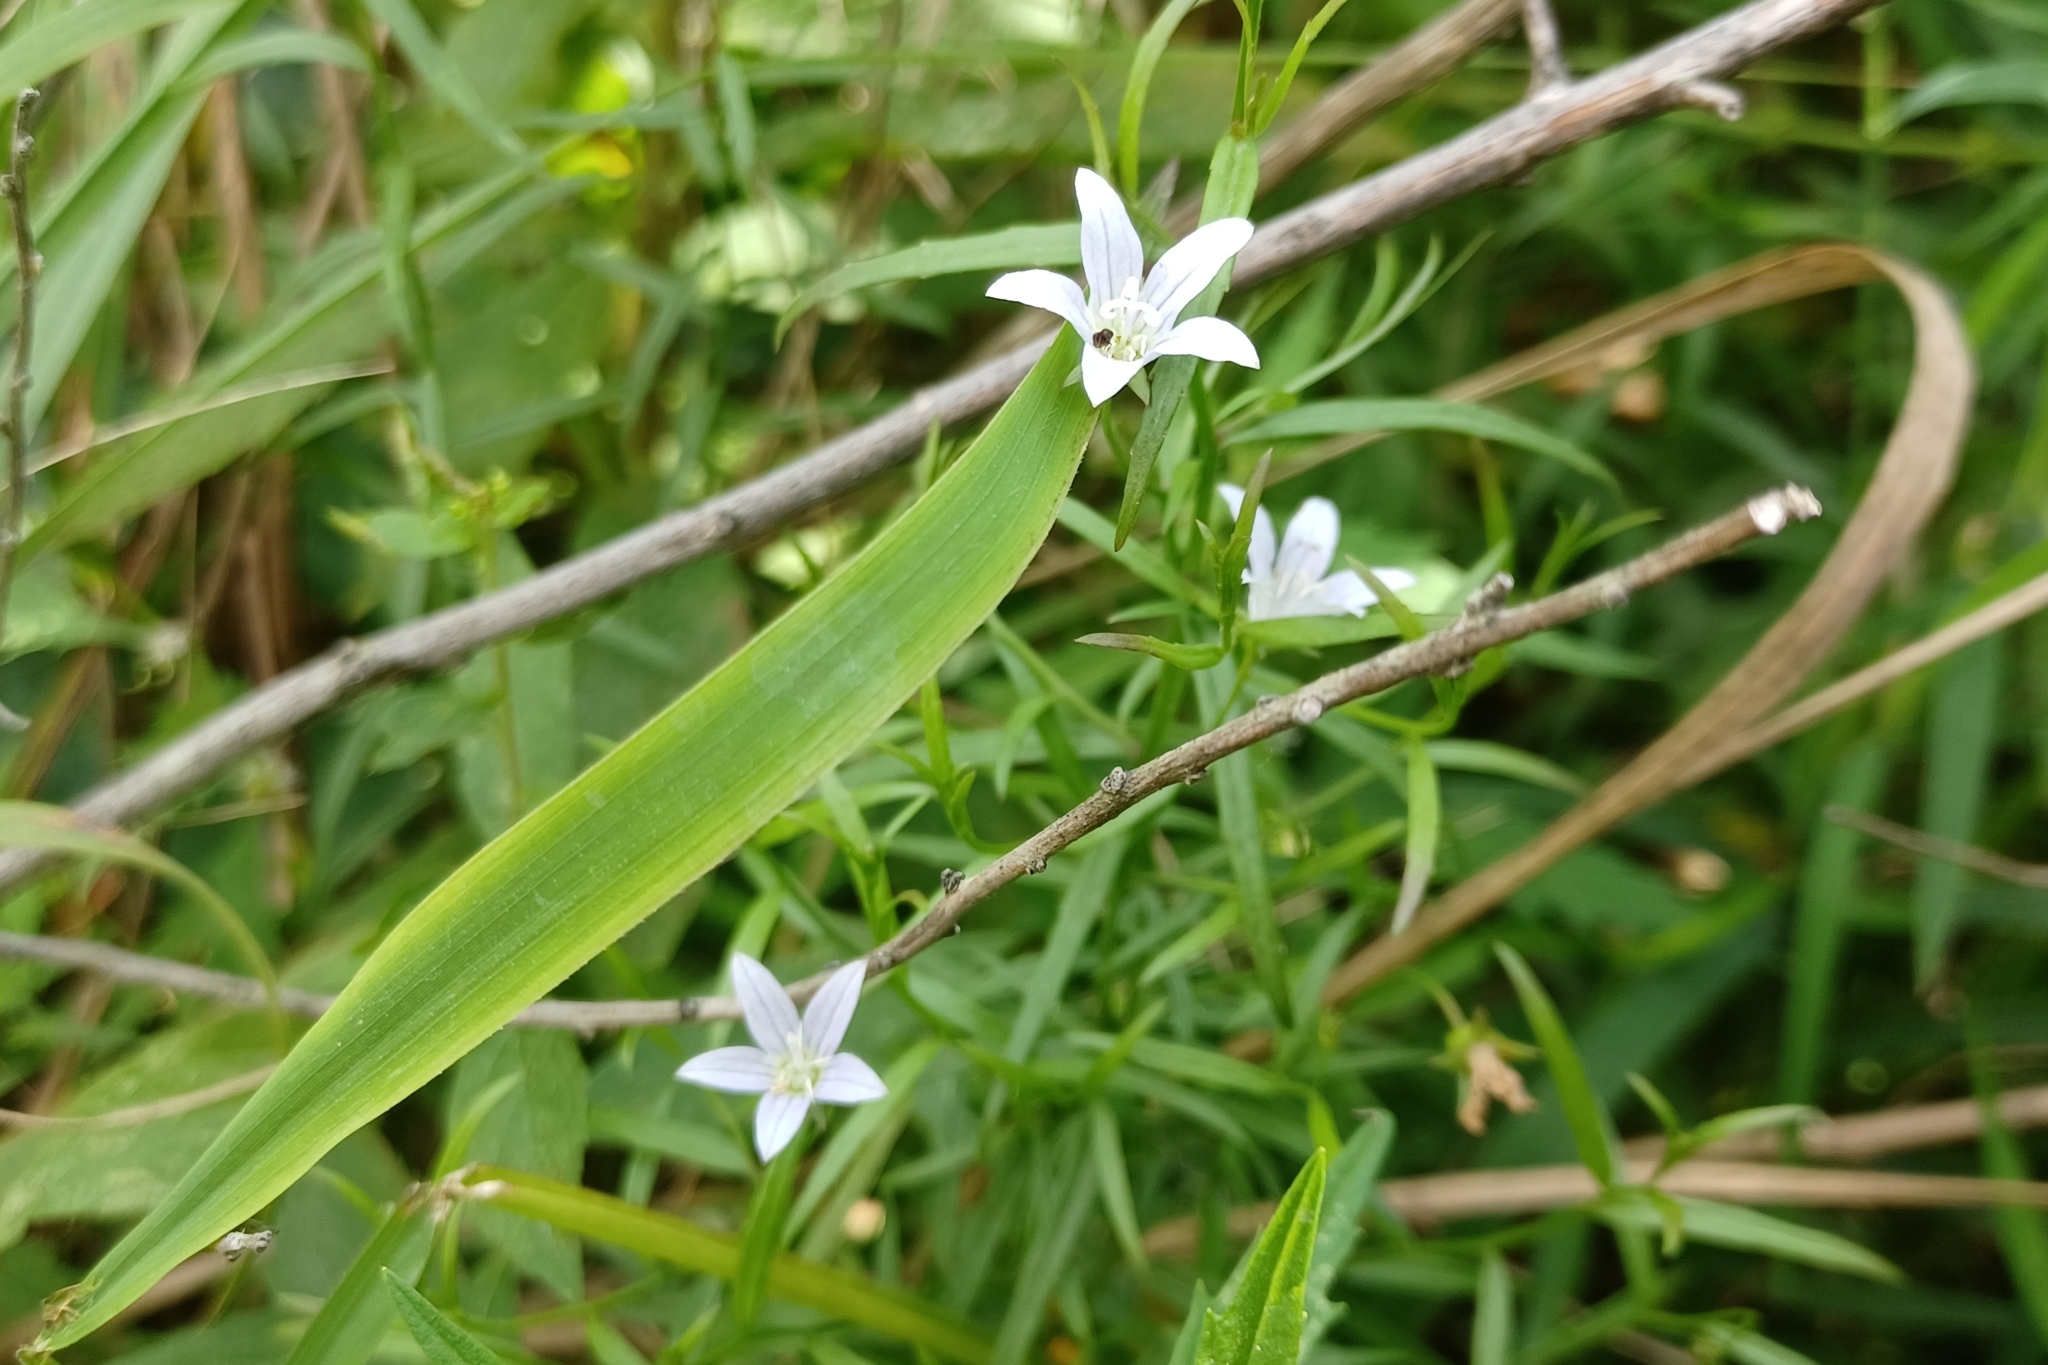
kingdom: Plantae
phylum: Tracheophyta
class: Magnoliopsida
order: Asterales
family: Campanulaceae
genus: Palustricodon
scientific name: Palustricodon aparinoides
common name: Bedstraw bellflower
